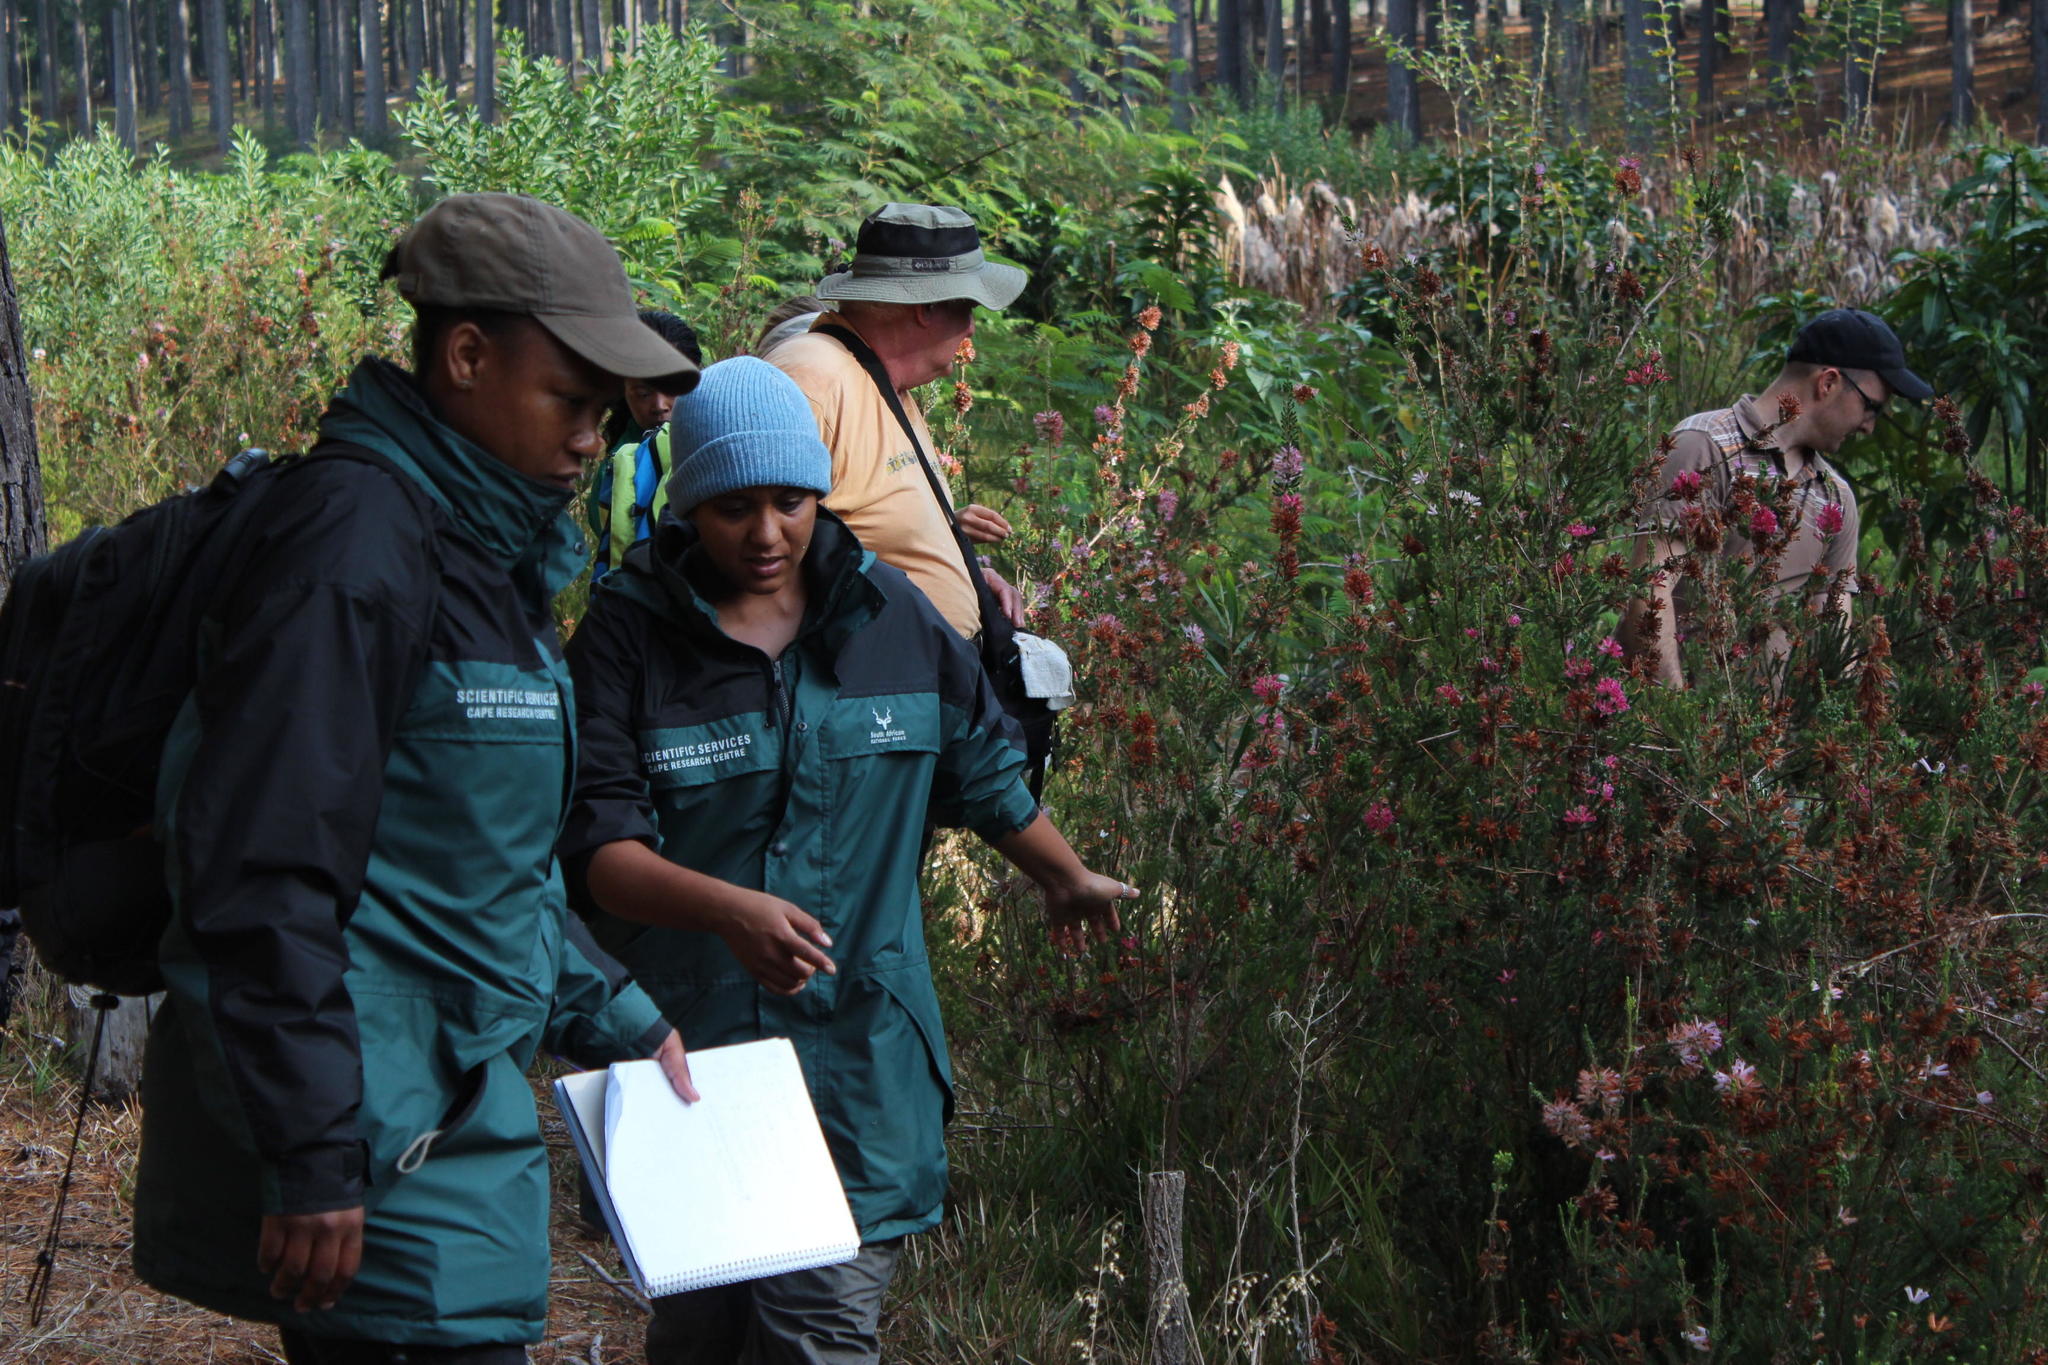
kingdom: Plantae
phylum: Tracheophyta
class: Magnoliopsida
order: Ericales
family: Ericaceae
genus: Erica
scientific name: Erica verticillata
